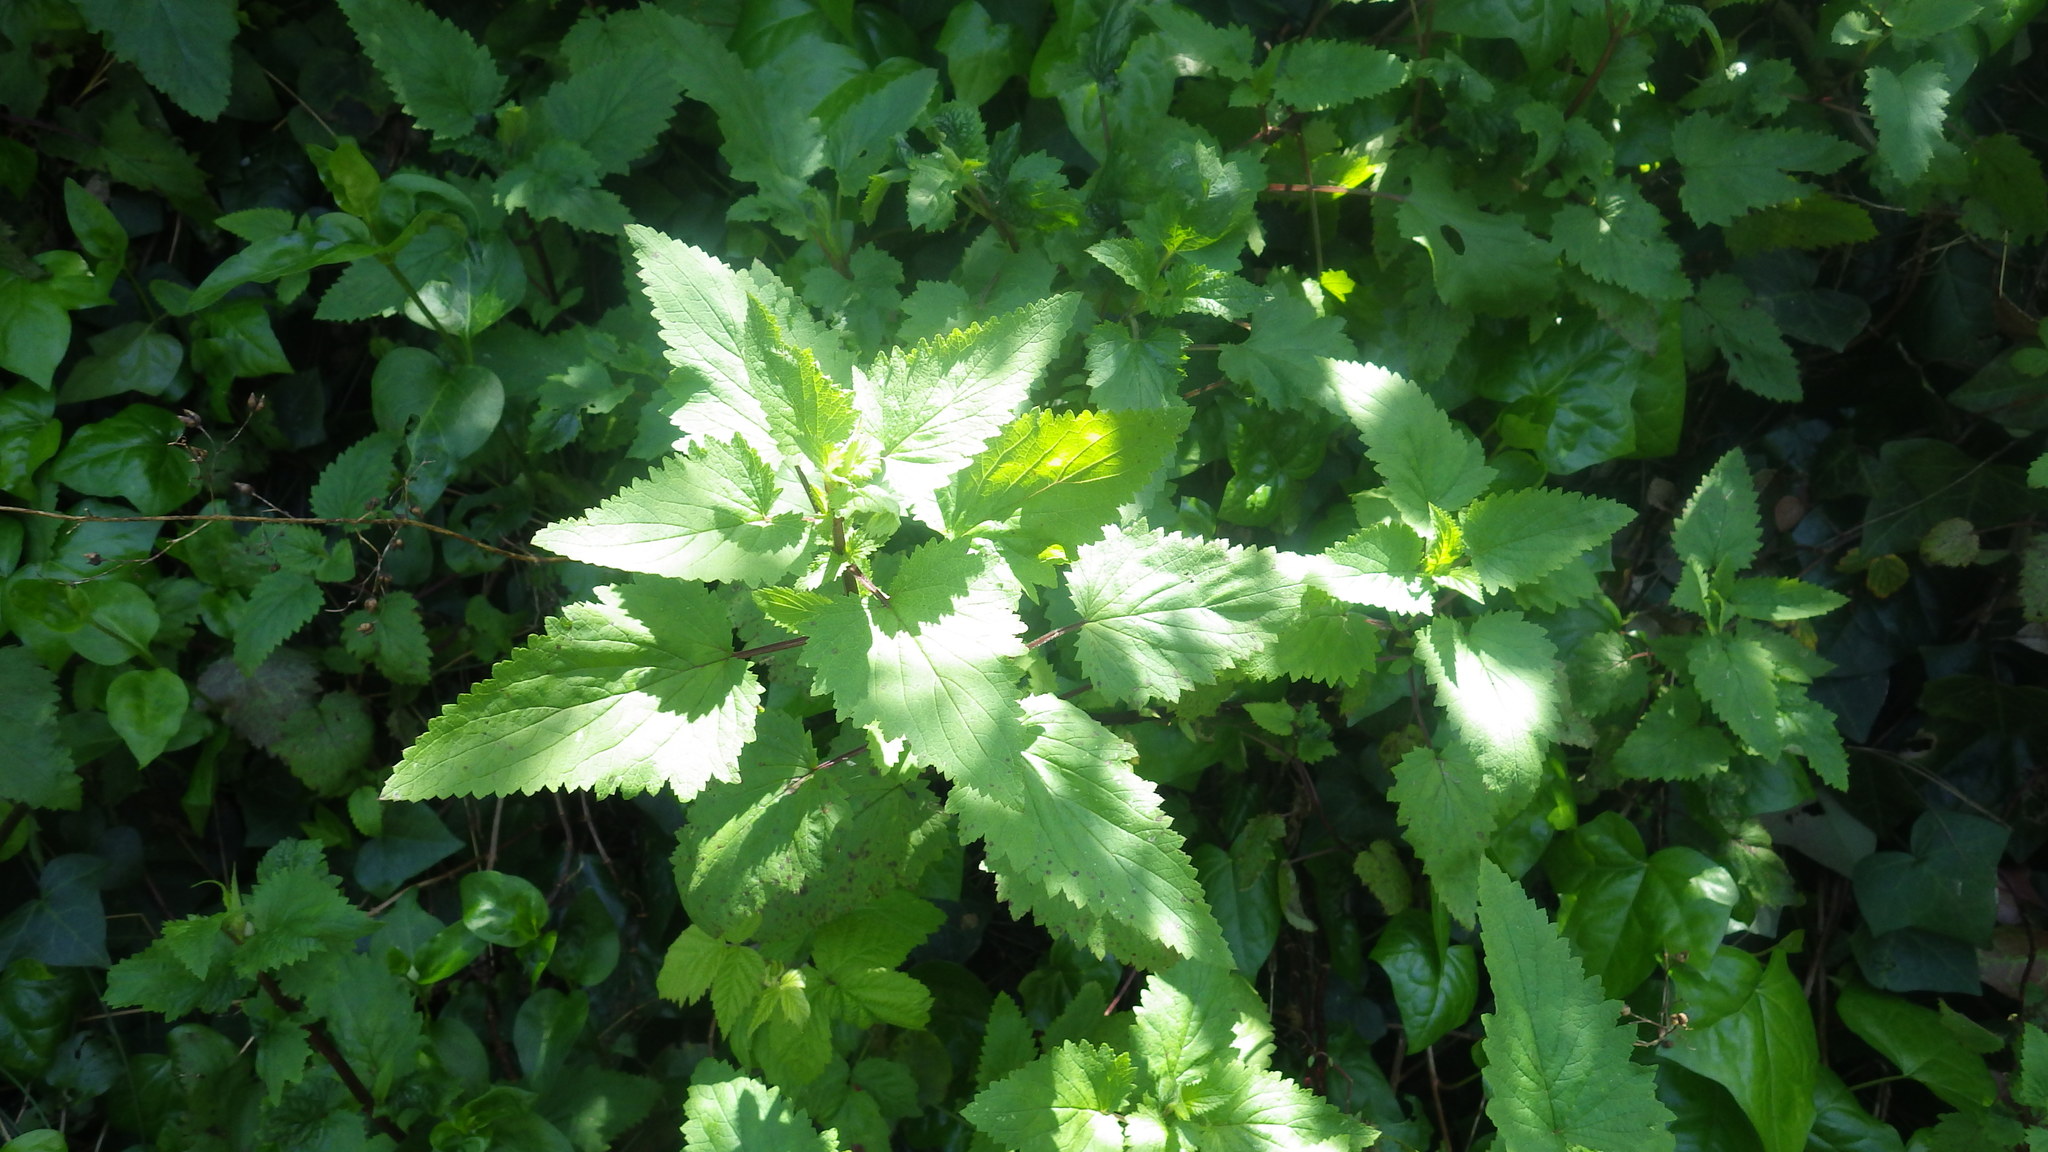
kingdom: Plantae
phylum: Tracheophyta
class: Magnoliopsida
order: Lamiales
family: Scrophulariaceae
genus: Scrophularia
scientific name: Scrophularia californica
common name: California figwort
